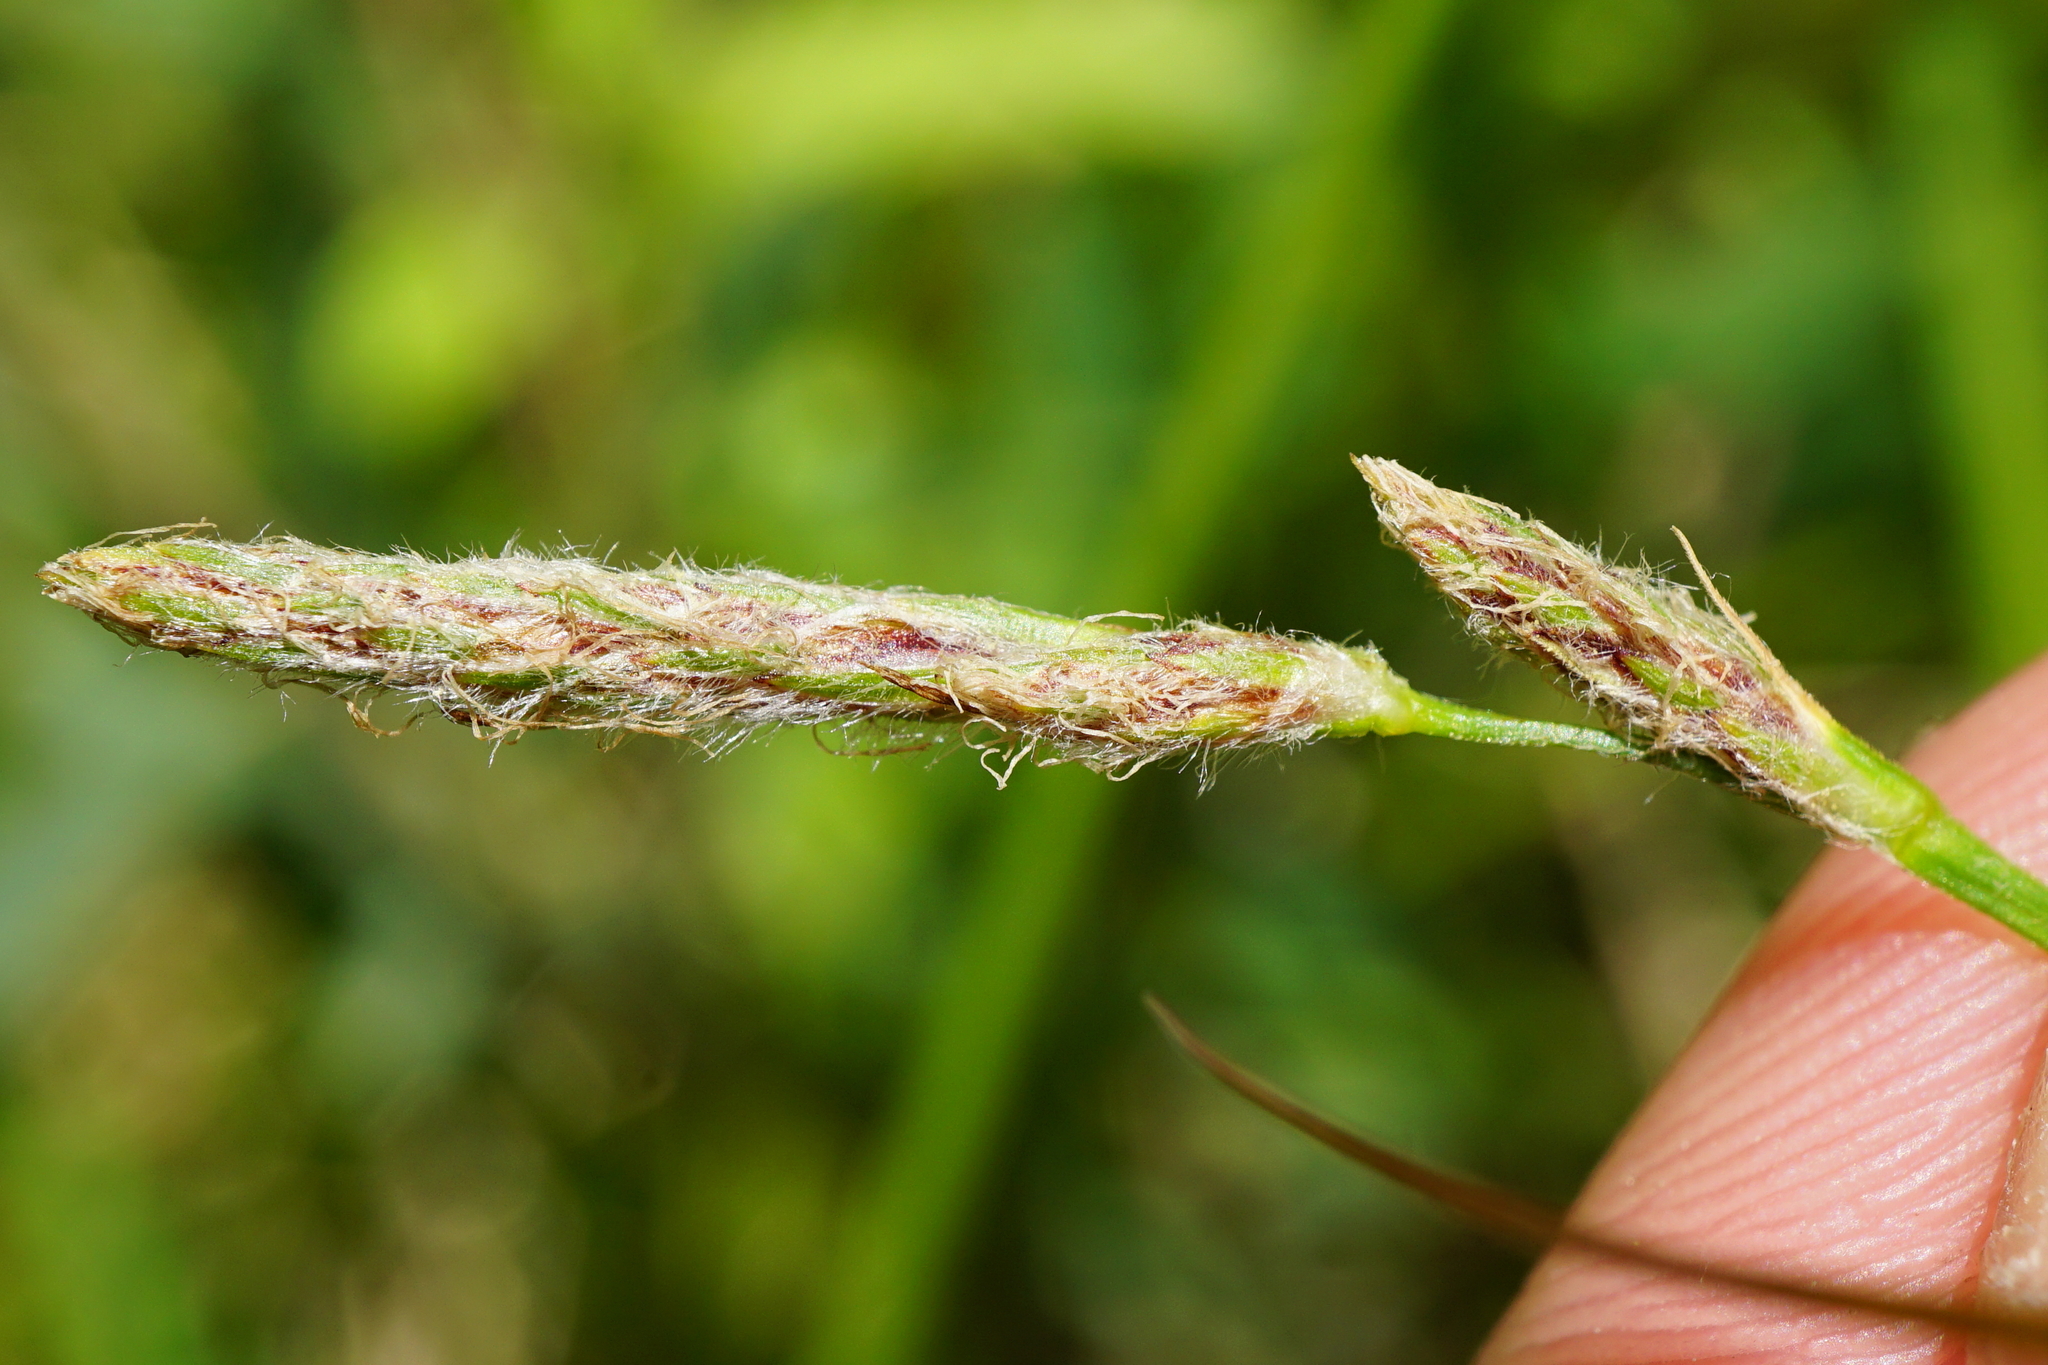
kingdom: Plantae
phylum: Tracheophyta
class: Liliopsida
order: Poales
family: Cyperaceae
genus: Carex
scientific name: Carex hirta
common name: Hairy sedge
